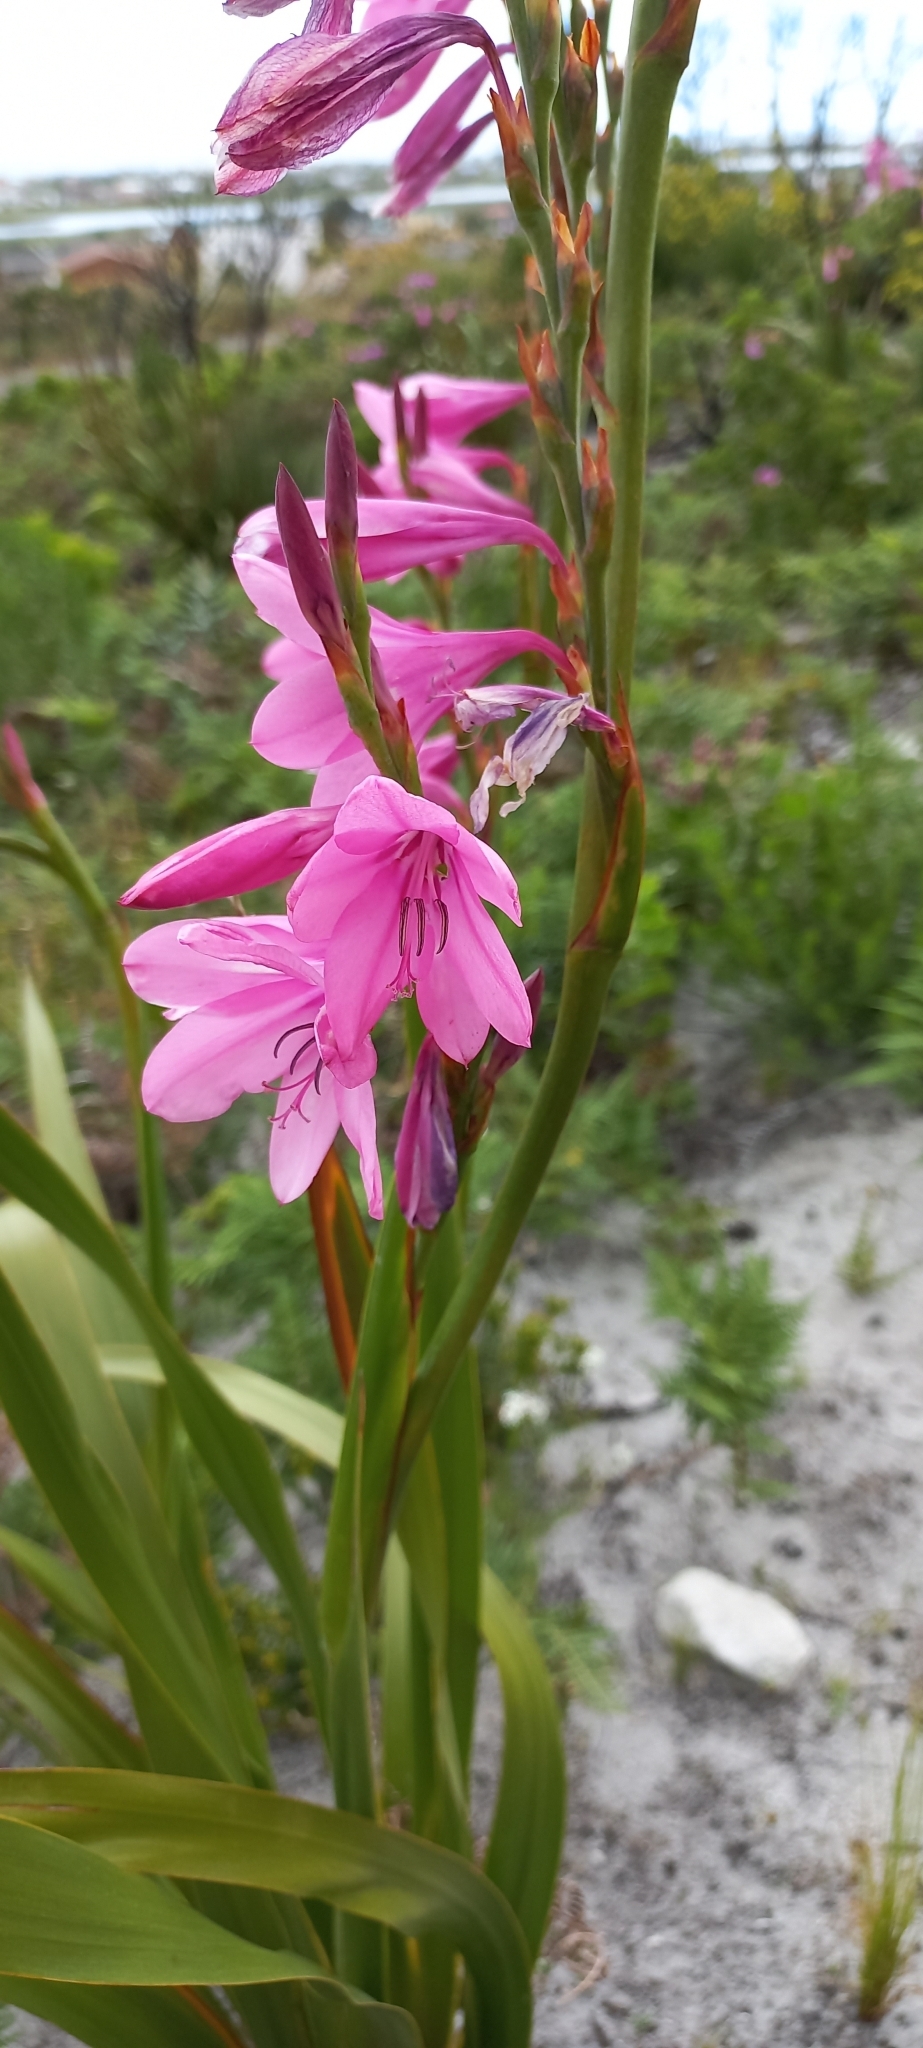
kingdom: Plantae
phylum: Tracheophyta
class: Liliopsida
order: Asparagales
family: Iridaceae
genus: Watsonia
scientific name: Watsonia borbonica
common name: Bugle-lily
